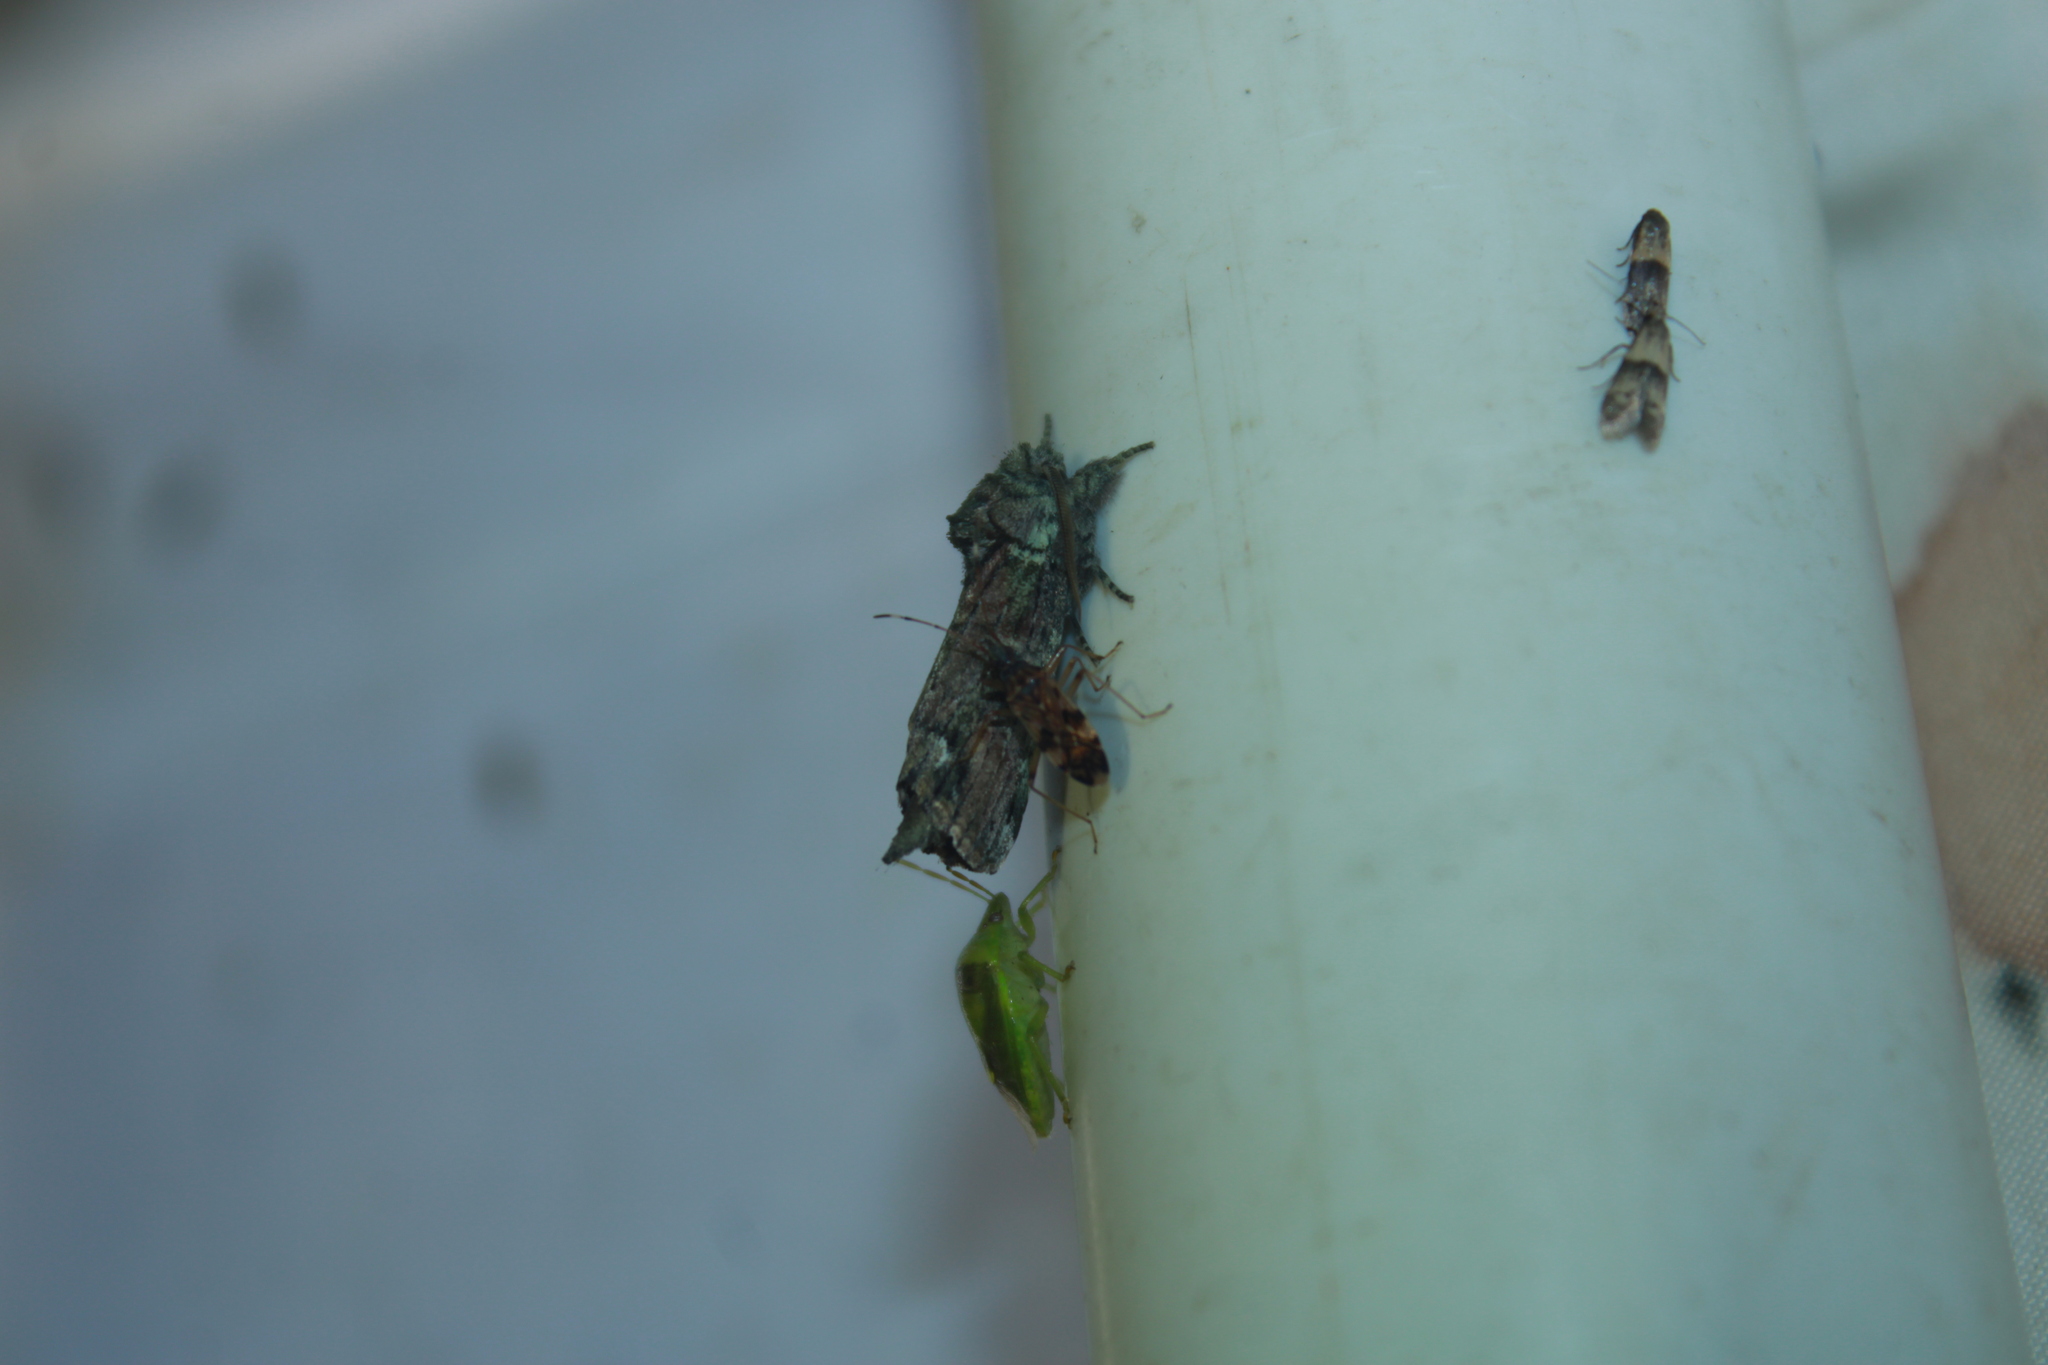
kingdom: Animalia
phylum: Arthropoda
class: Insecta
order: Lepidoptera
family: Notodontidae
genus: Schizura
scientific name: Schizura
